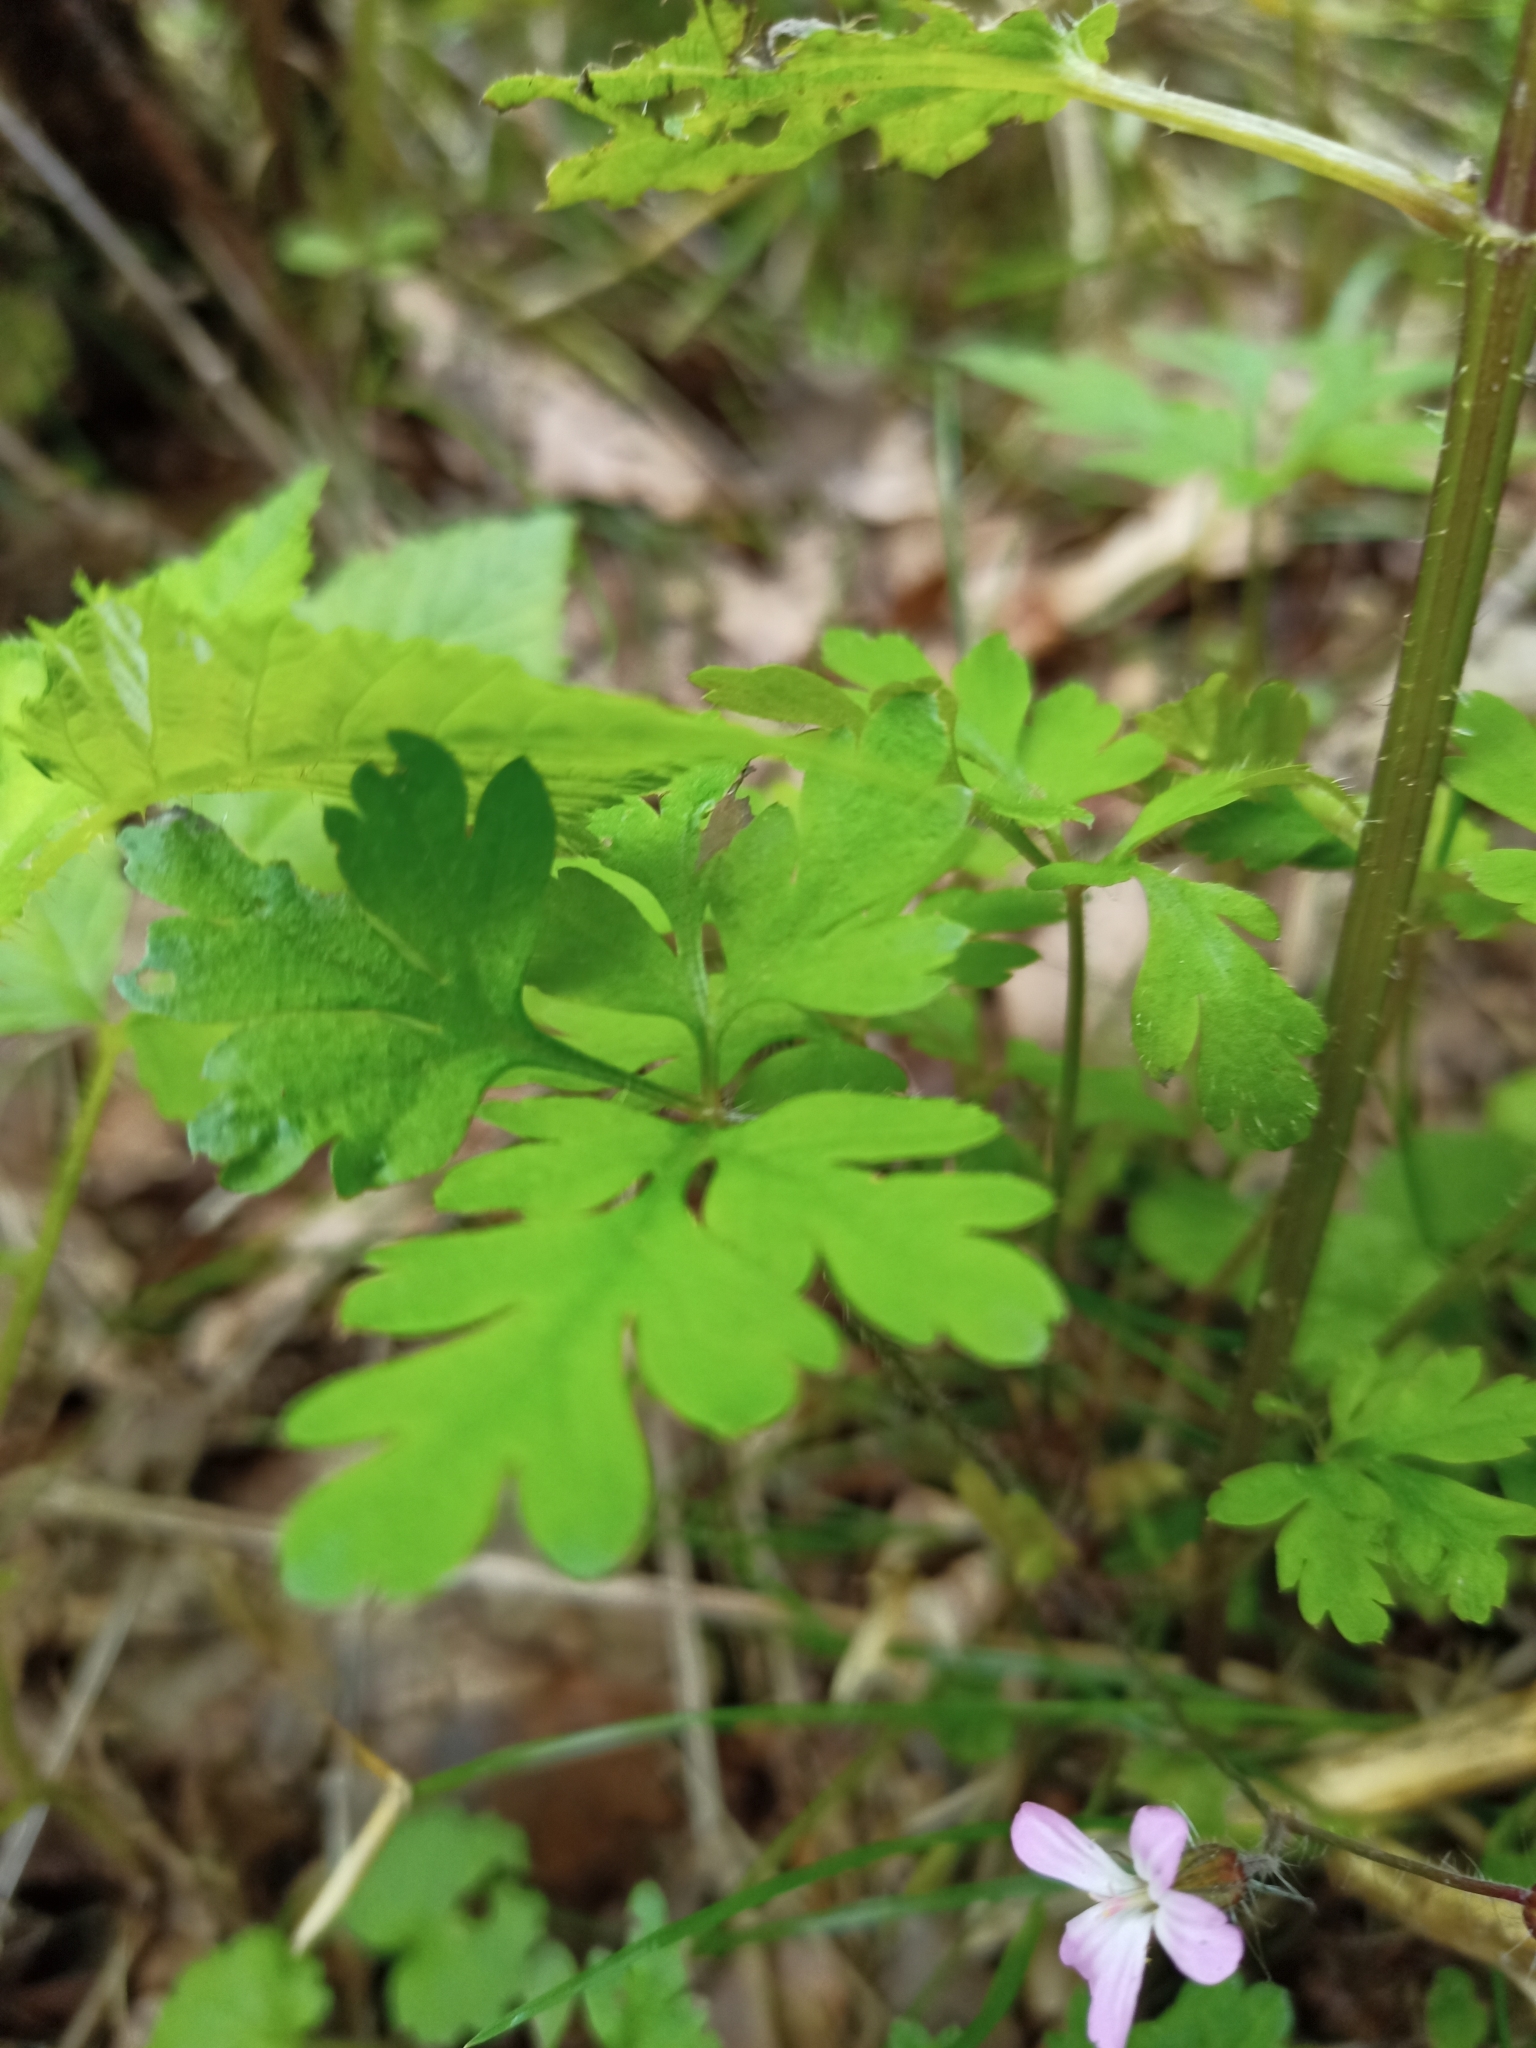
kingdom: Plantae
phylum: Tracheophyta
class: Magnoliopsida
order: Geraniales
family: Geraniaceae
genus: Geranium
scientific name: Geranium robertianum
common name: Herb-robert
